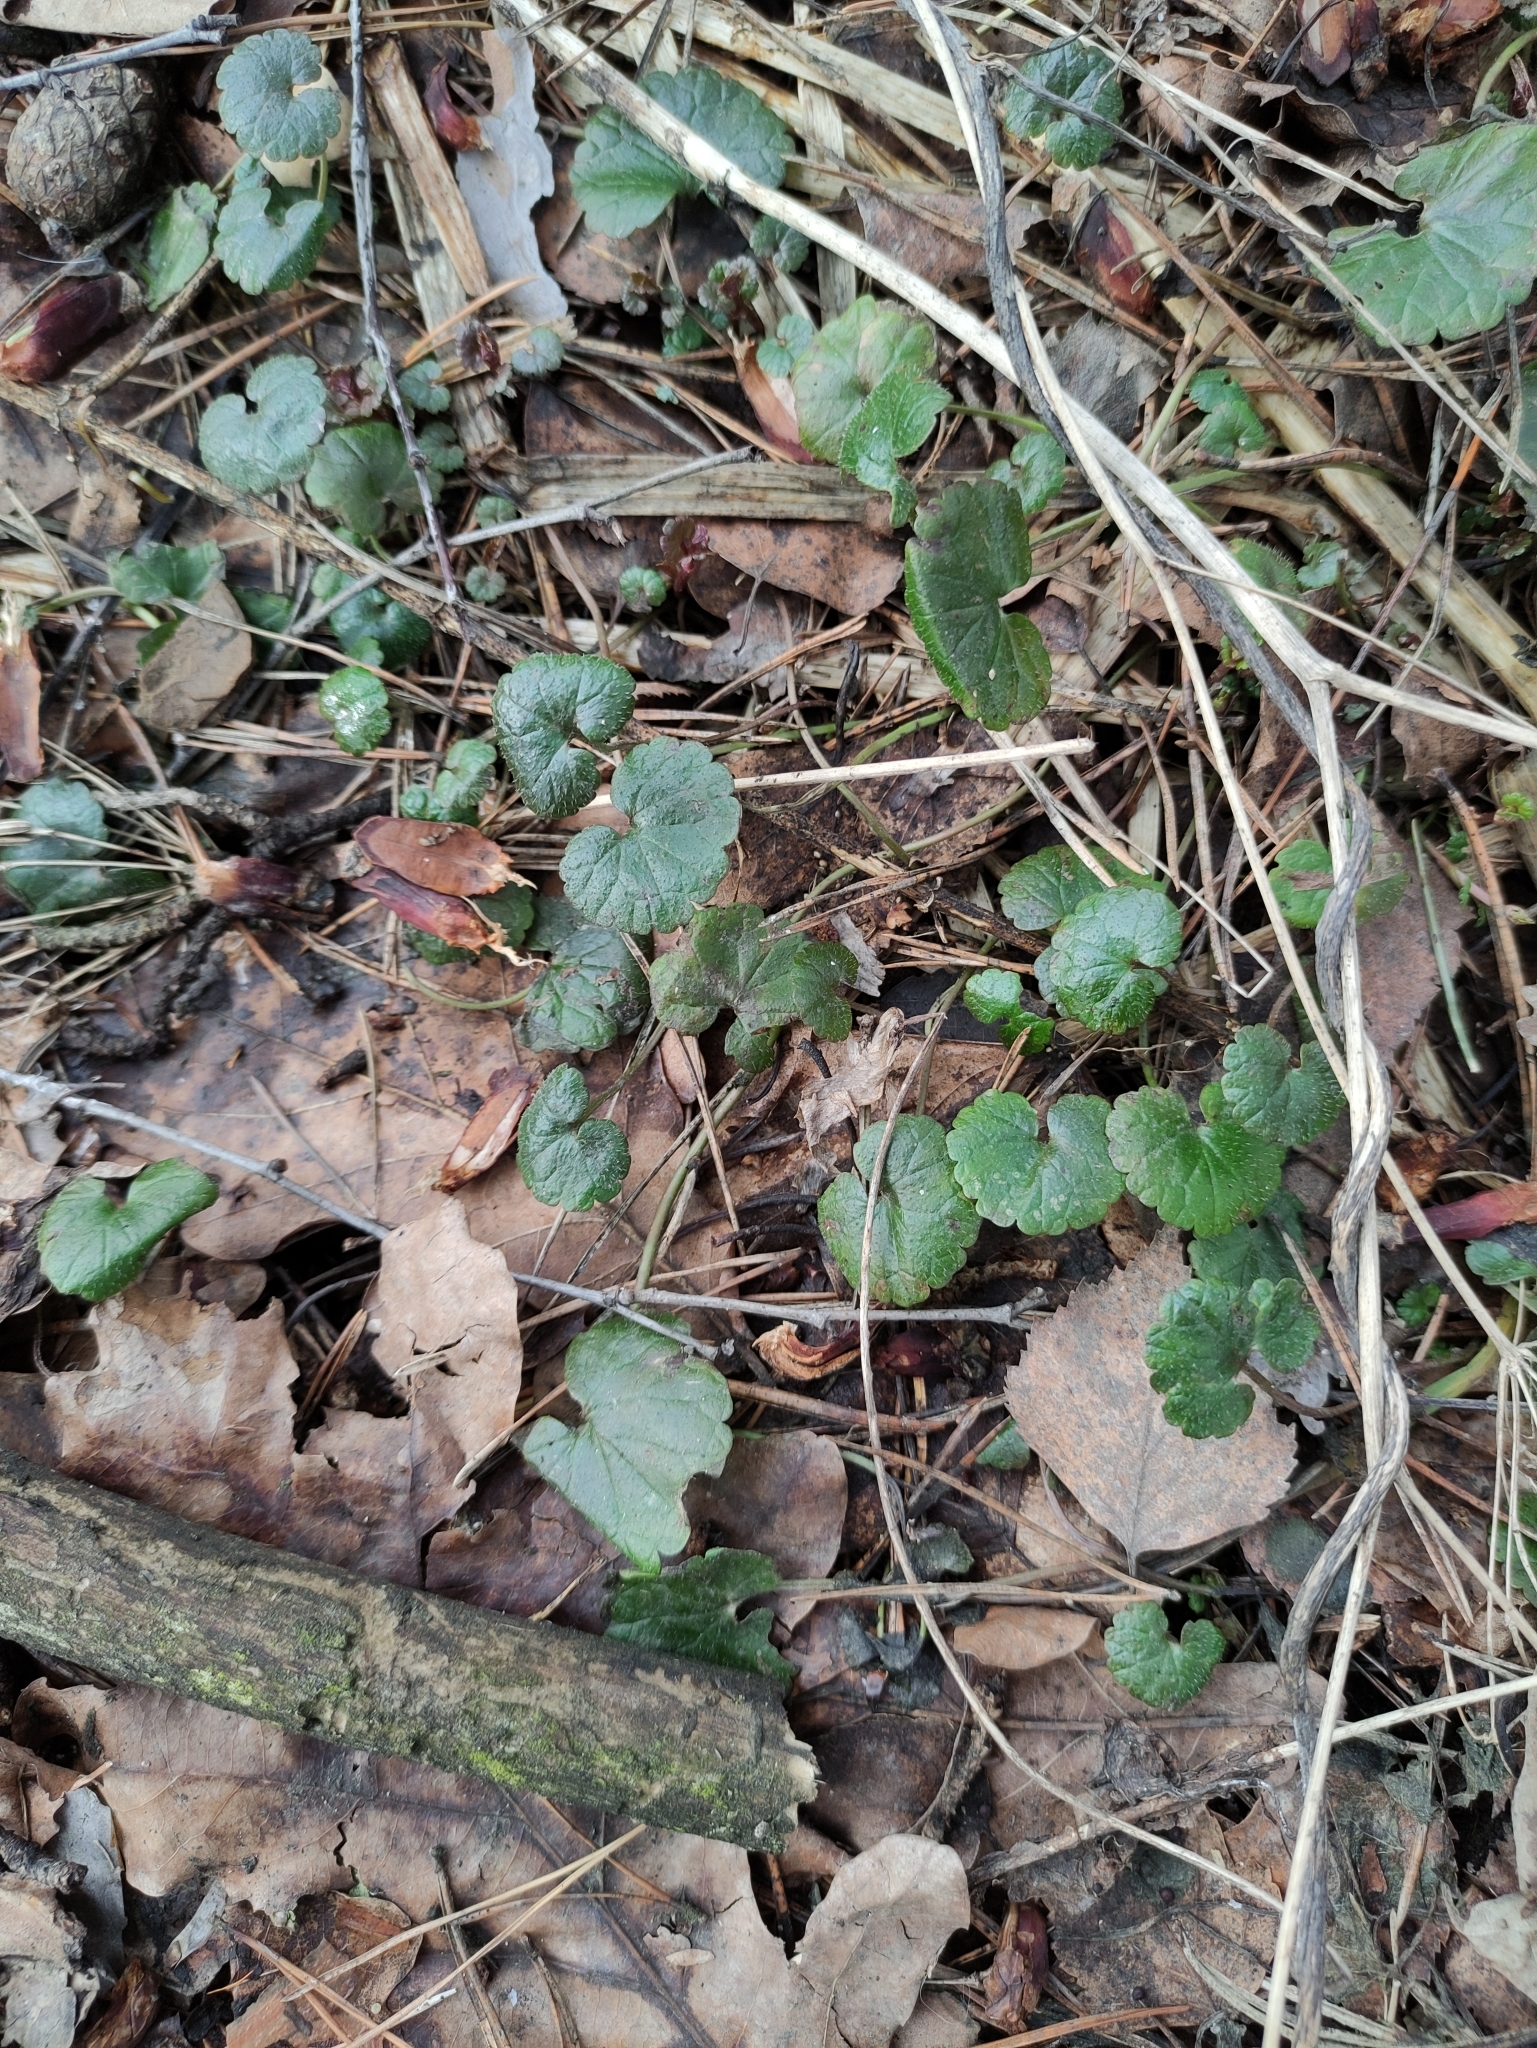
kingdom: Plantae
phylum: Tracheophyta
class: Magnoliopsida
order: Lamiales
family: Lamiaceae
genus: Glechoma
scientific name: Glechoma hederacea
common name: Ground ivy
